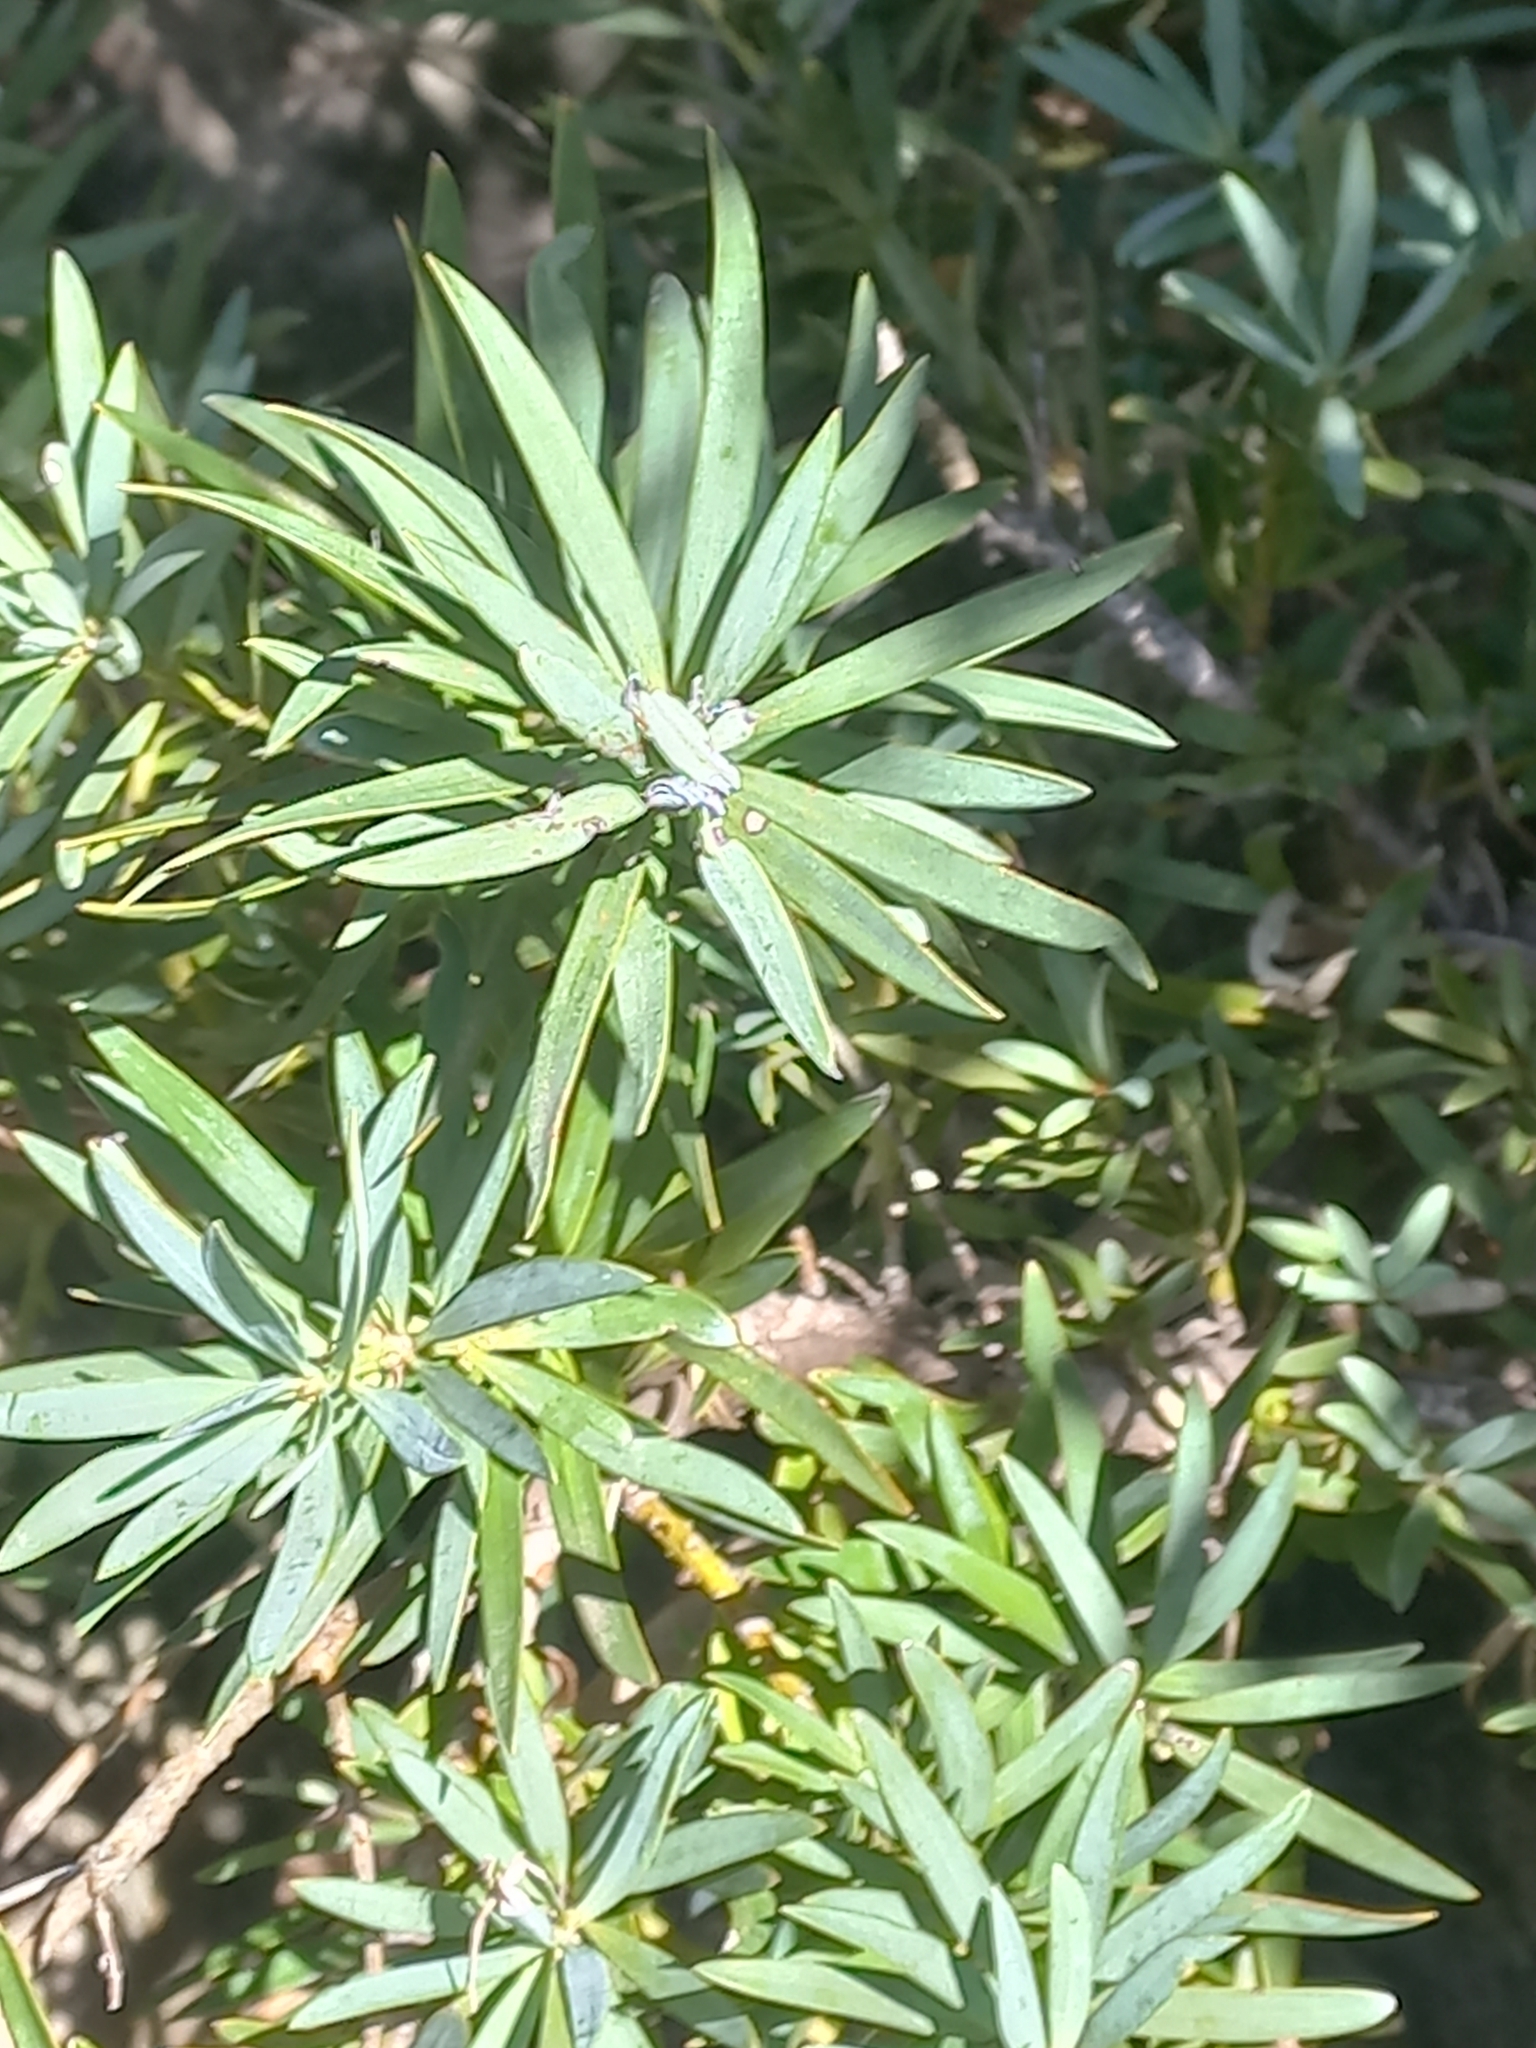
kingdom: Plantae
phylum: Tracheophyta
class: Pinopsida
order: Pinales
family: Podocarpaceae
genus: Podocarpus
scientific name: Podocarpus elongatus
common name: Breede river yellowwood
